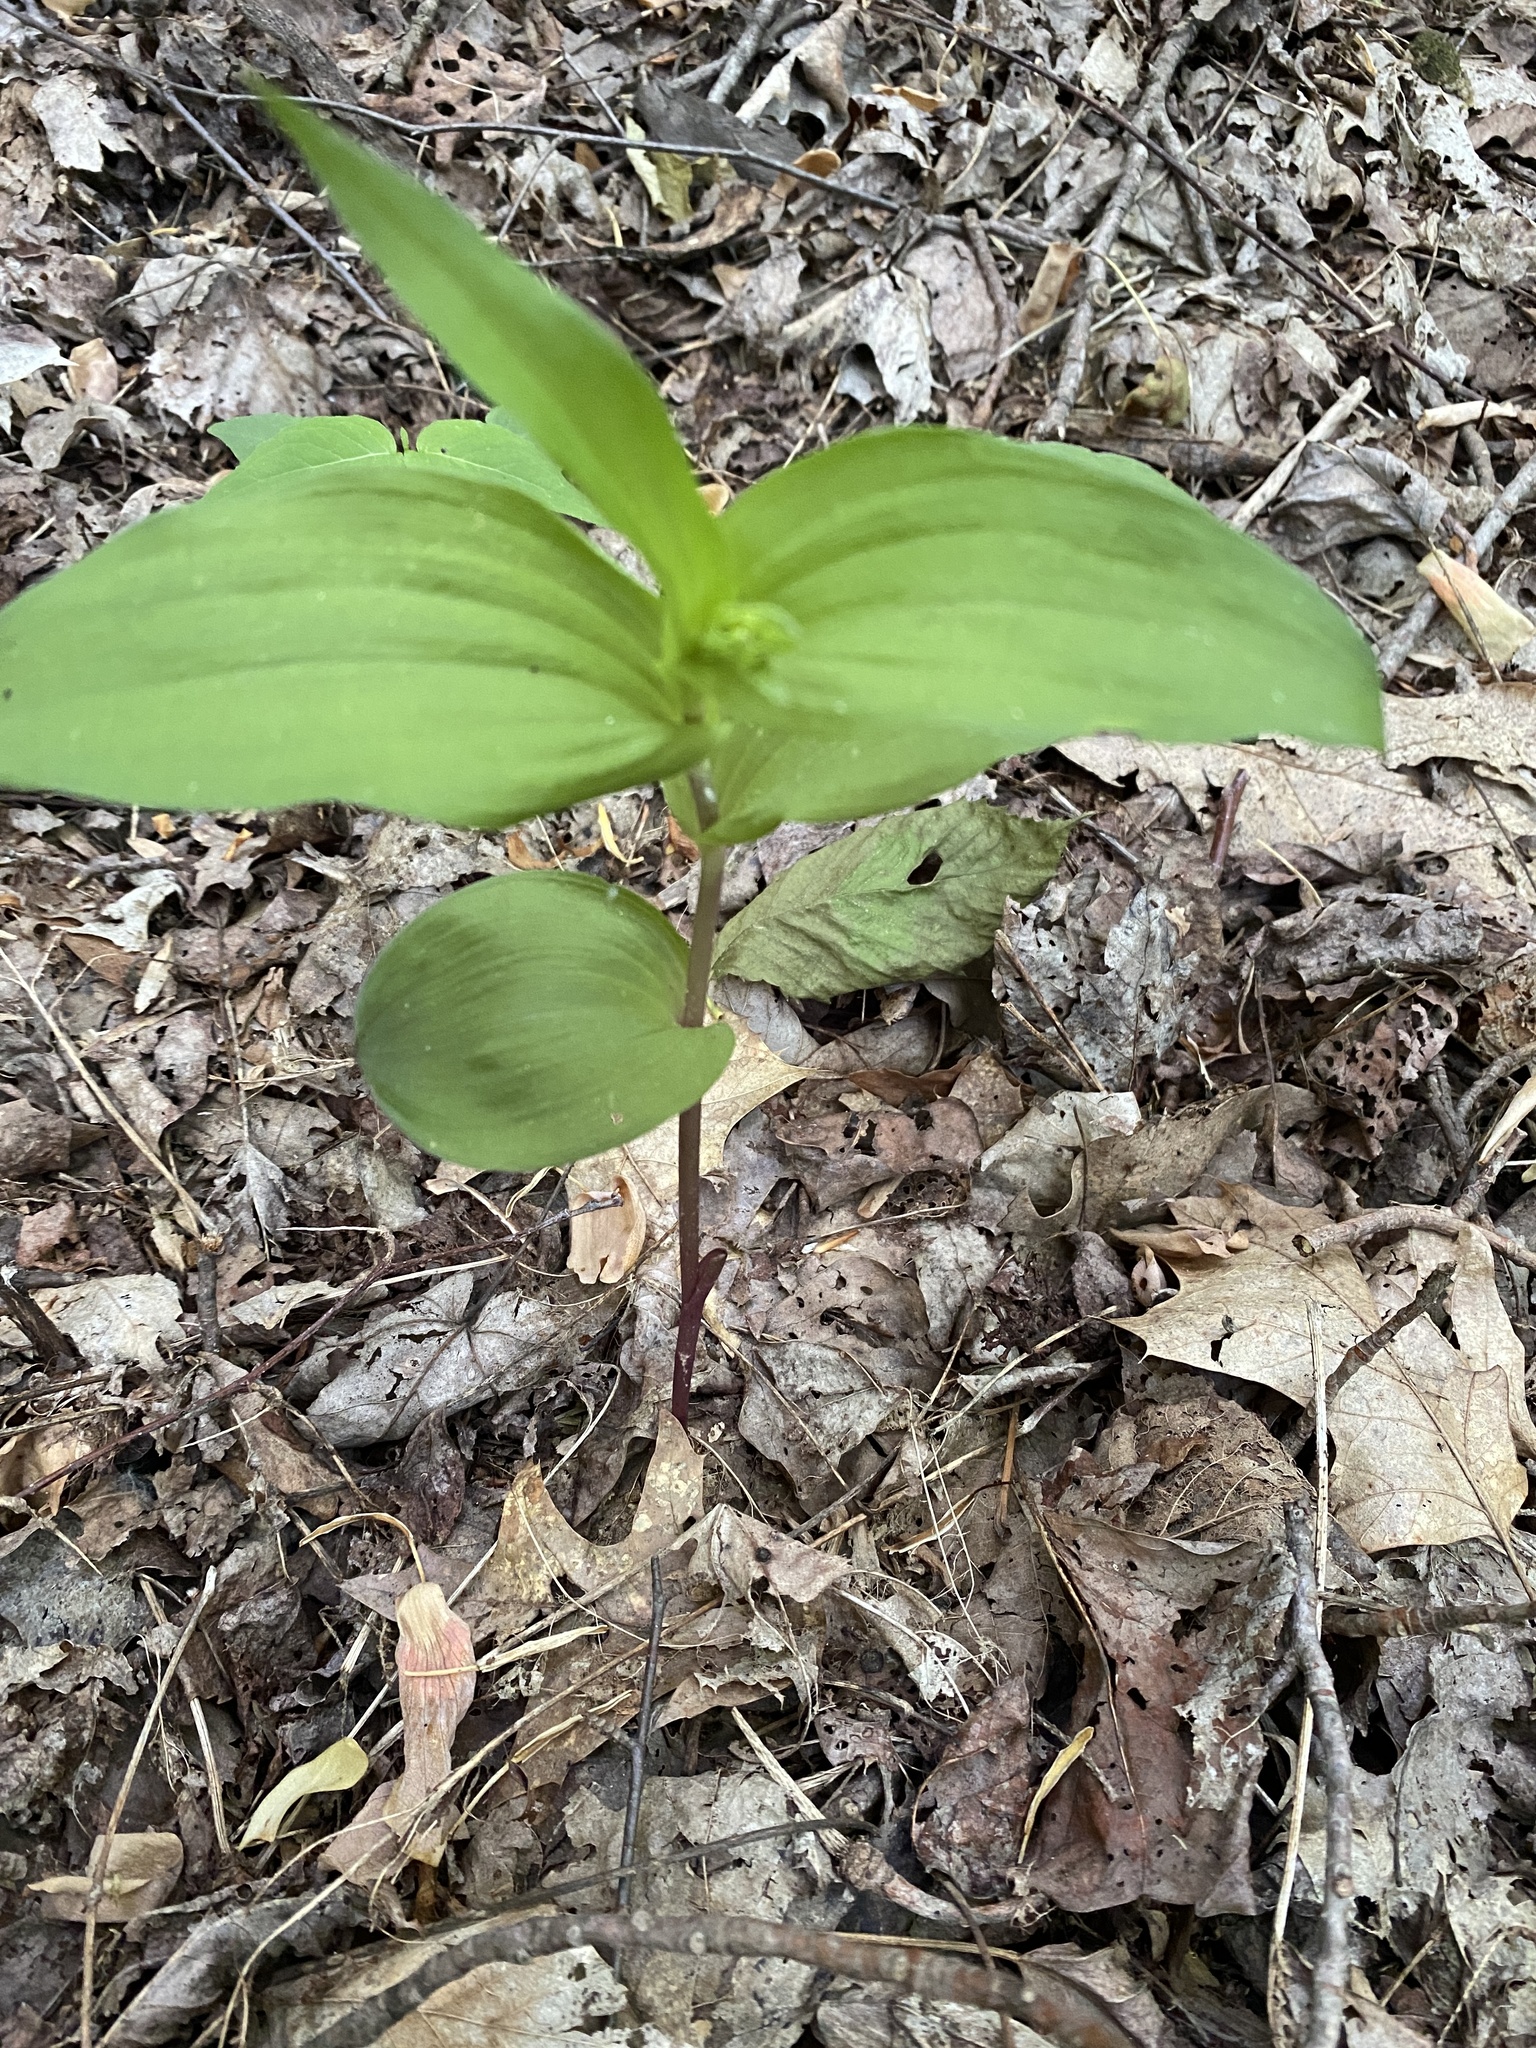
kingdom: Plantae
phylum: Tracheophyta
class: Liliopsida
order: Asparagales
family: Orchidaceae
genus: Epipactis
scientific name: Epipactis helleborine
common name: Broad-leaved helleborine
